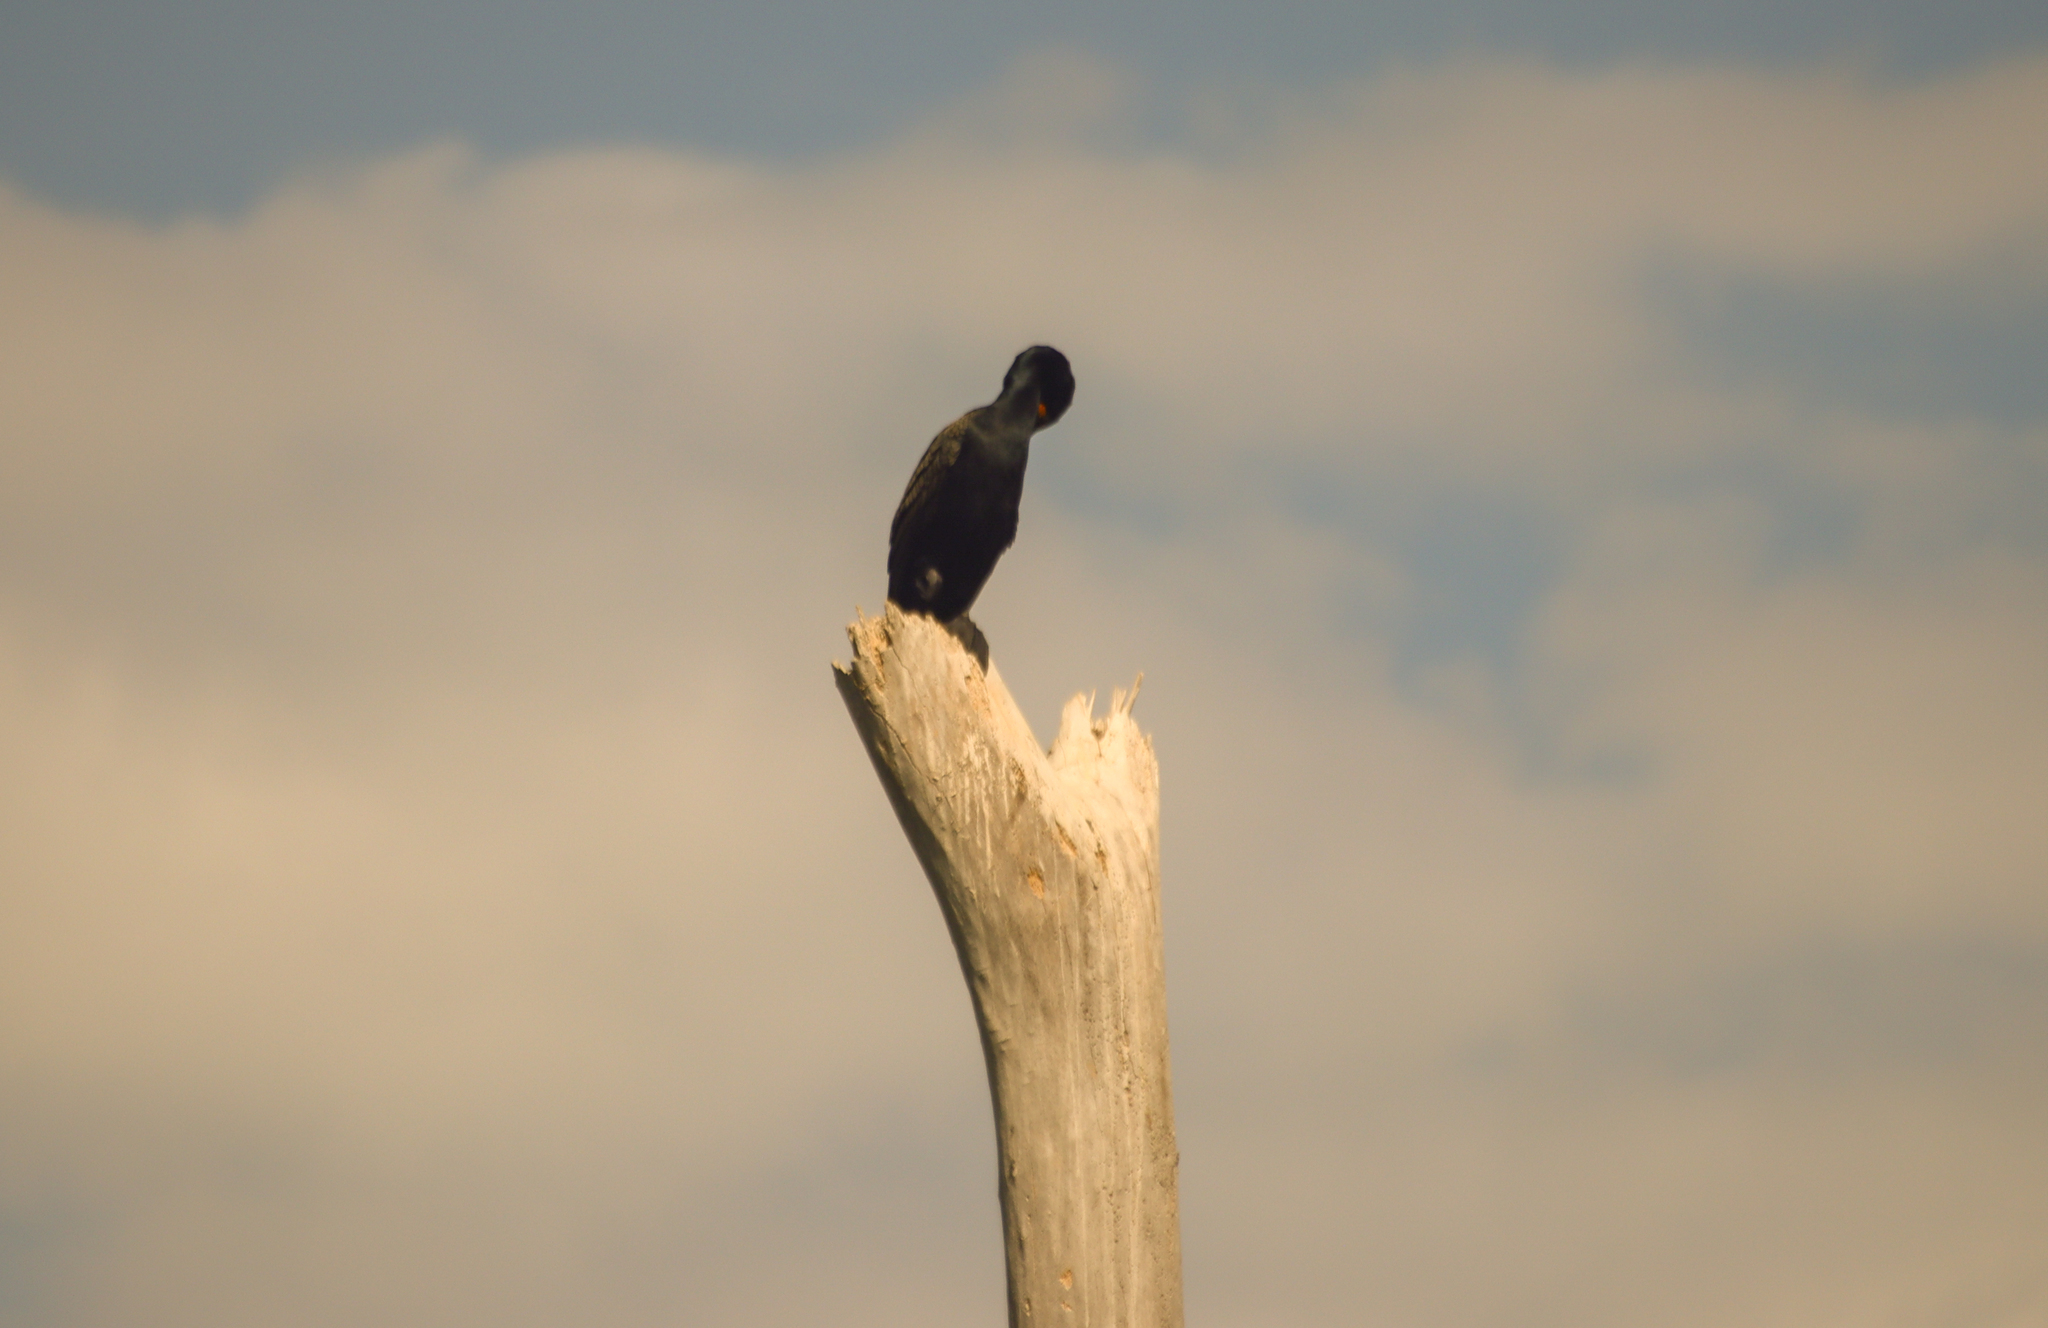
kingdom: Animalia
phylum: Chordata
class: Aves
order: Suliformes
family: Phalacrocoracidae
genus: Phalacrocorax
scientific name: Phalacrocorax auritus
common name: Double-crested cormorant
